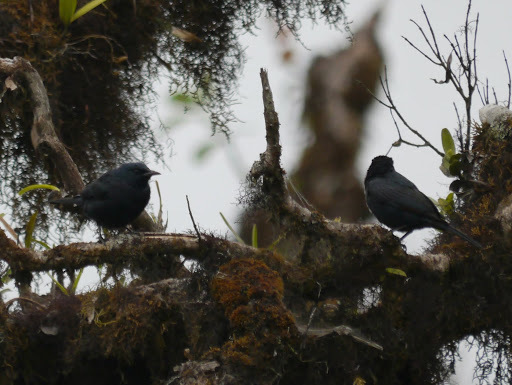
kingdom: Animalia
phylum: Chordata
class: Aves
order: Passeriformes
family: Sturnidae
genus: Onychognathus
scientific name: Onychognathus walleri
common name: Waller's starling
